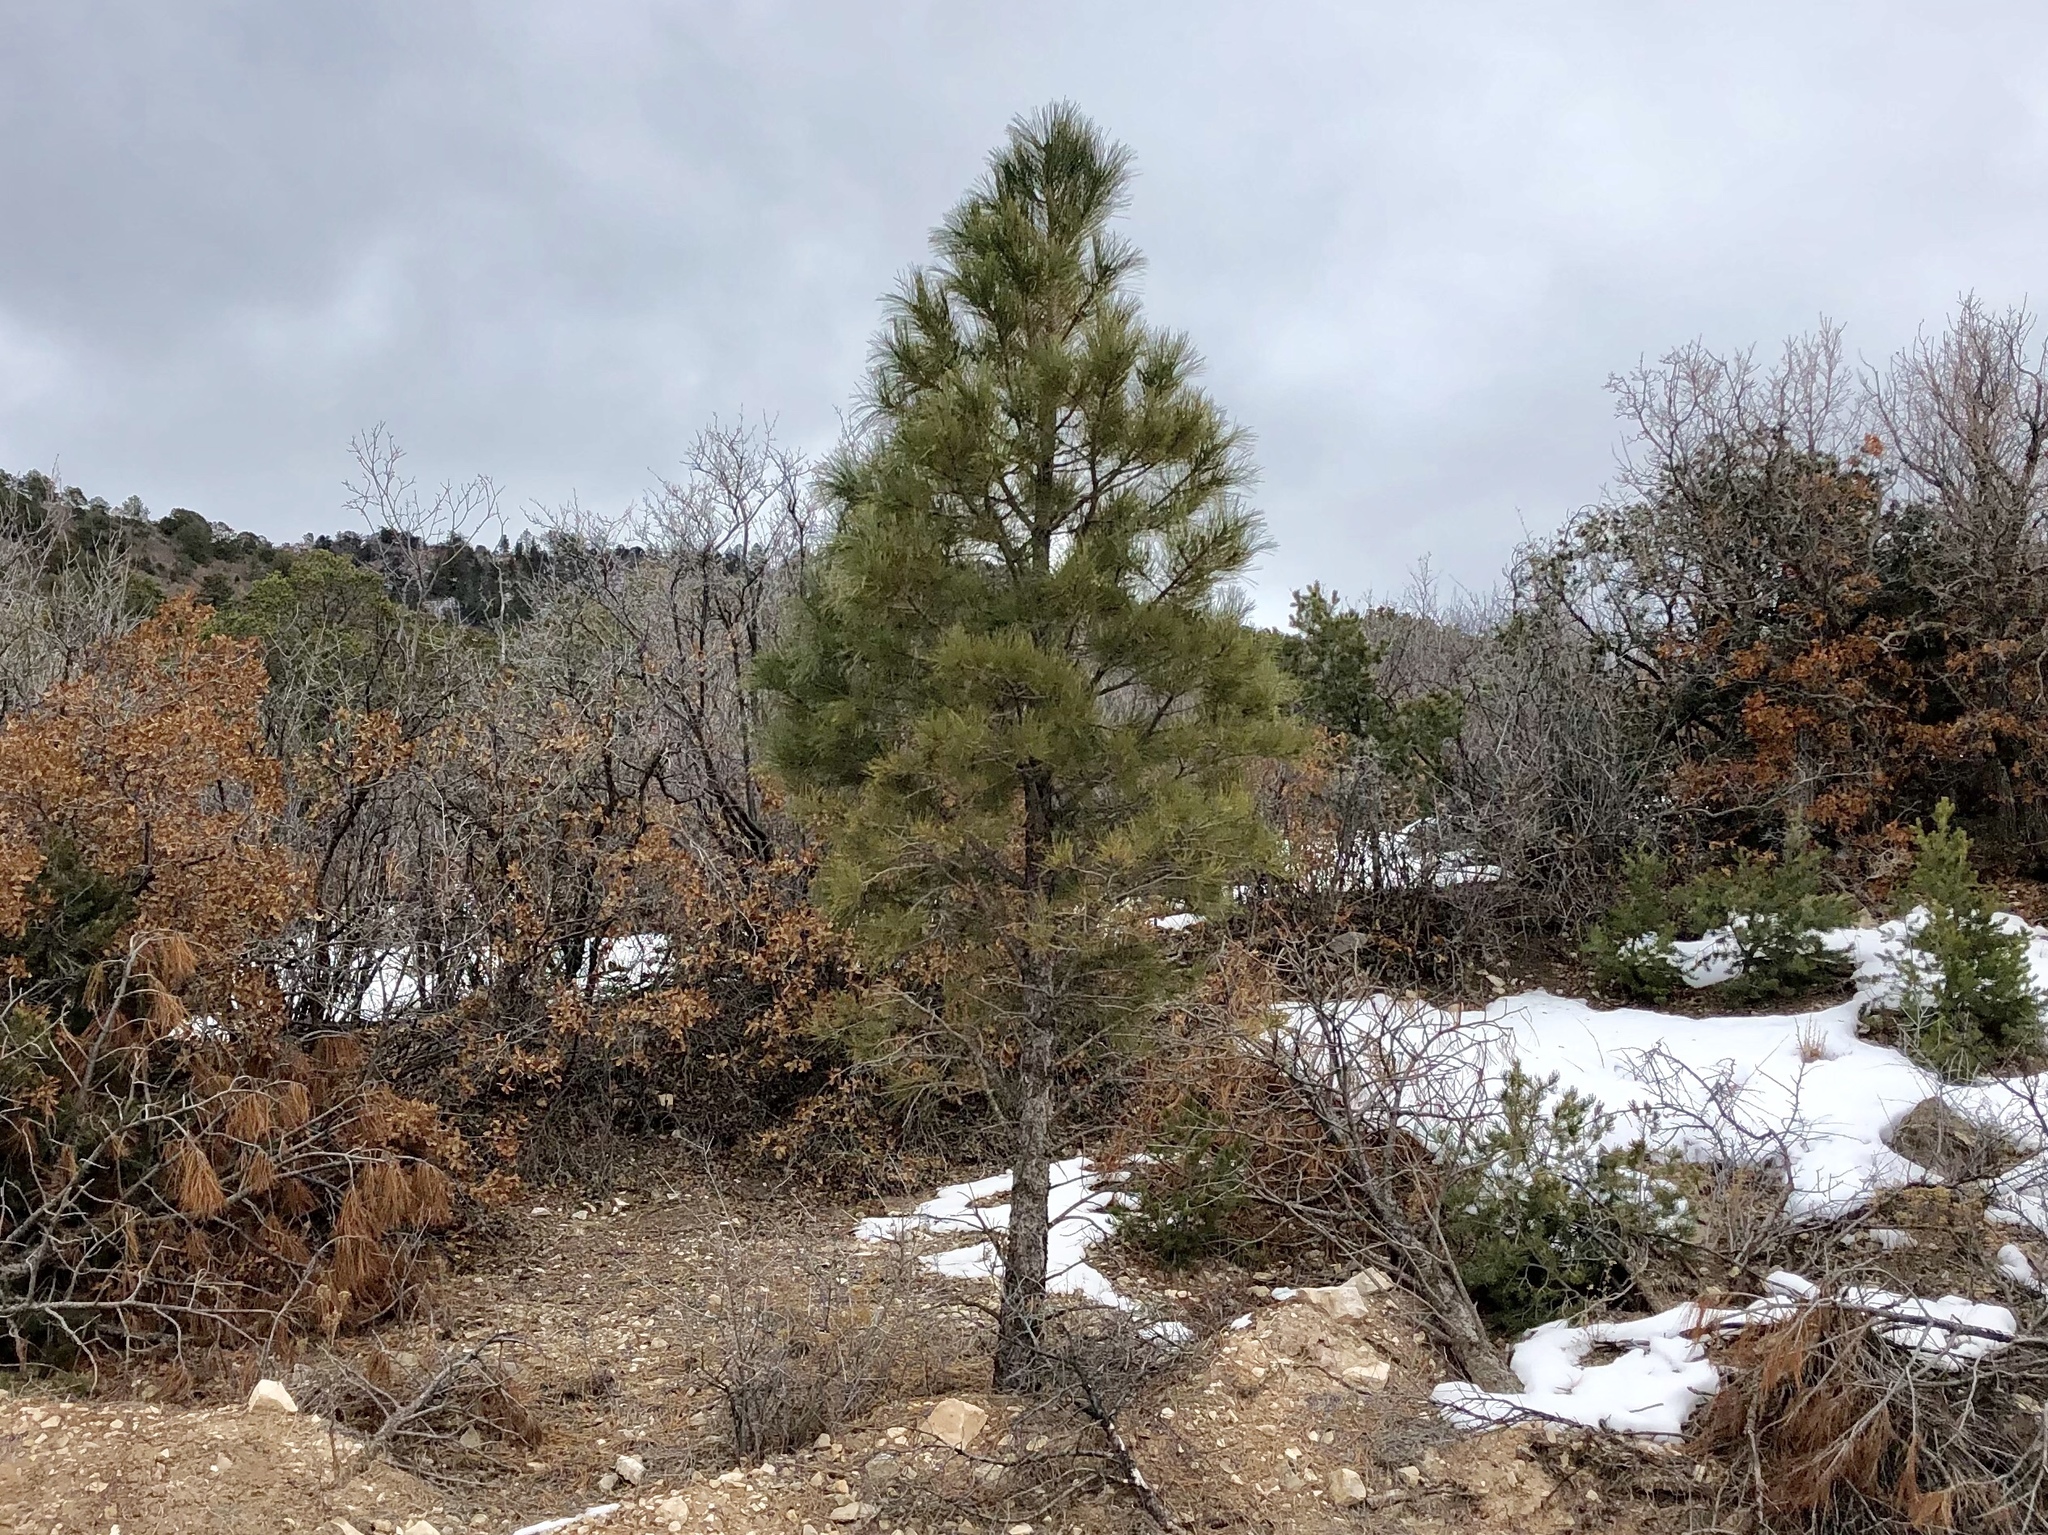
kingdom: Plantae
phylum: Tracheophyta
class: Pinopsida
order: Pinales
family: Pinaceae
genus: Pinus
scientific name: Pinus ponderosa
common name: Western yellow-pine
